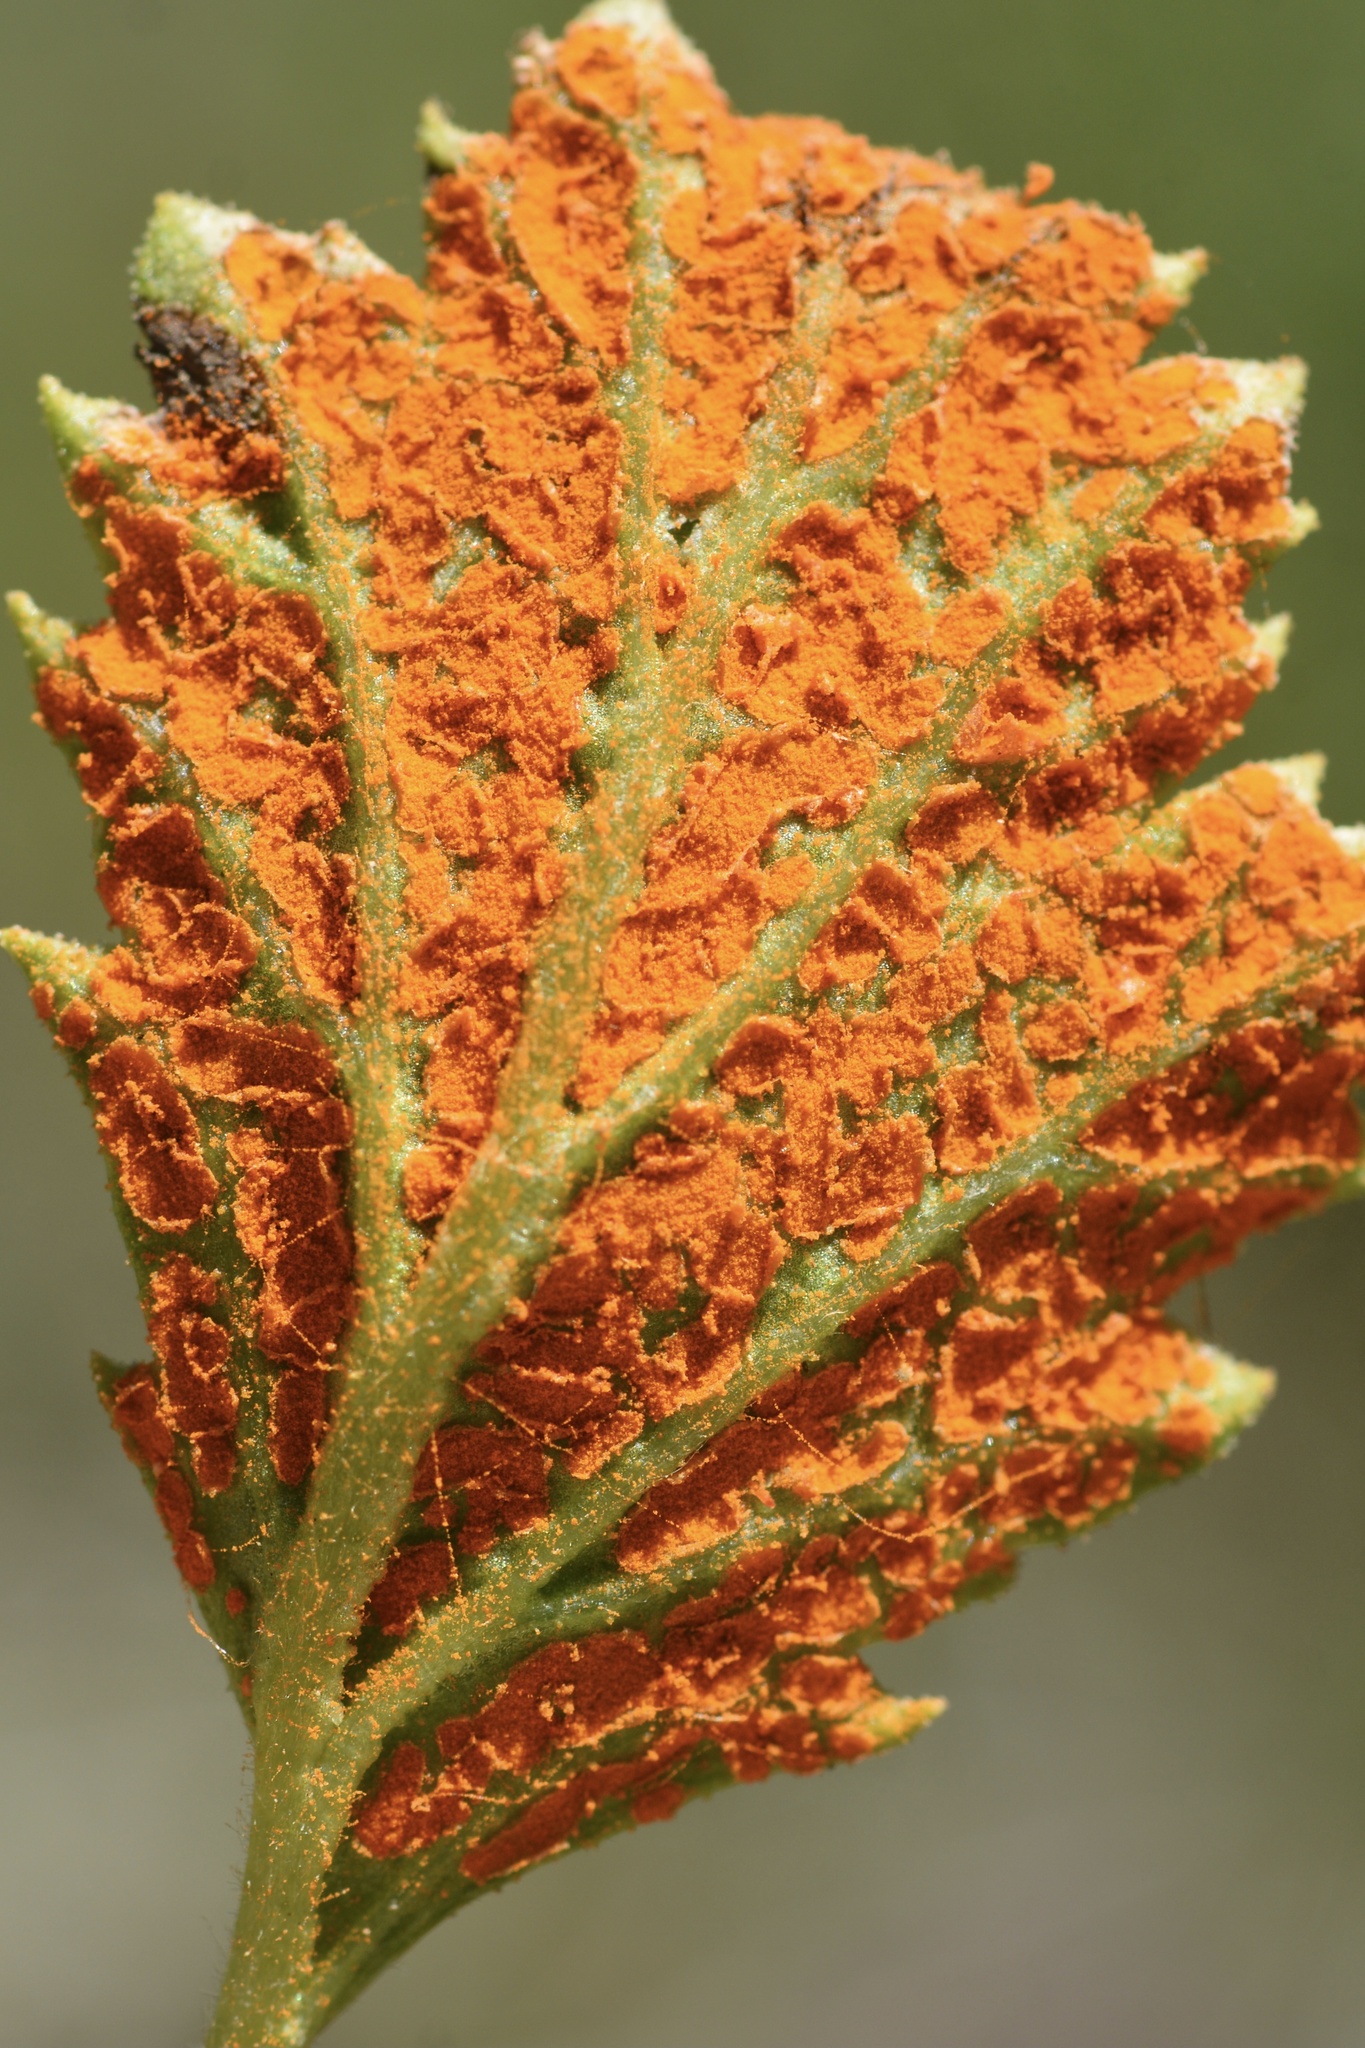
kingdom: Fungi
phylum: Basidiomycota
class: Pucciniomycetes
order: Pucciniales
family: Phragmidiaceae
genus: Arthuriomyces
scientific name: Arthuriomyces peckianus
